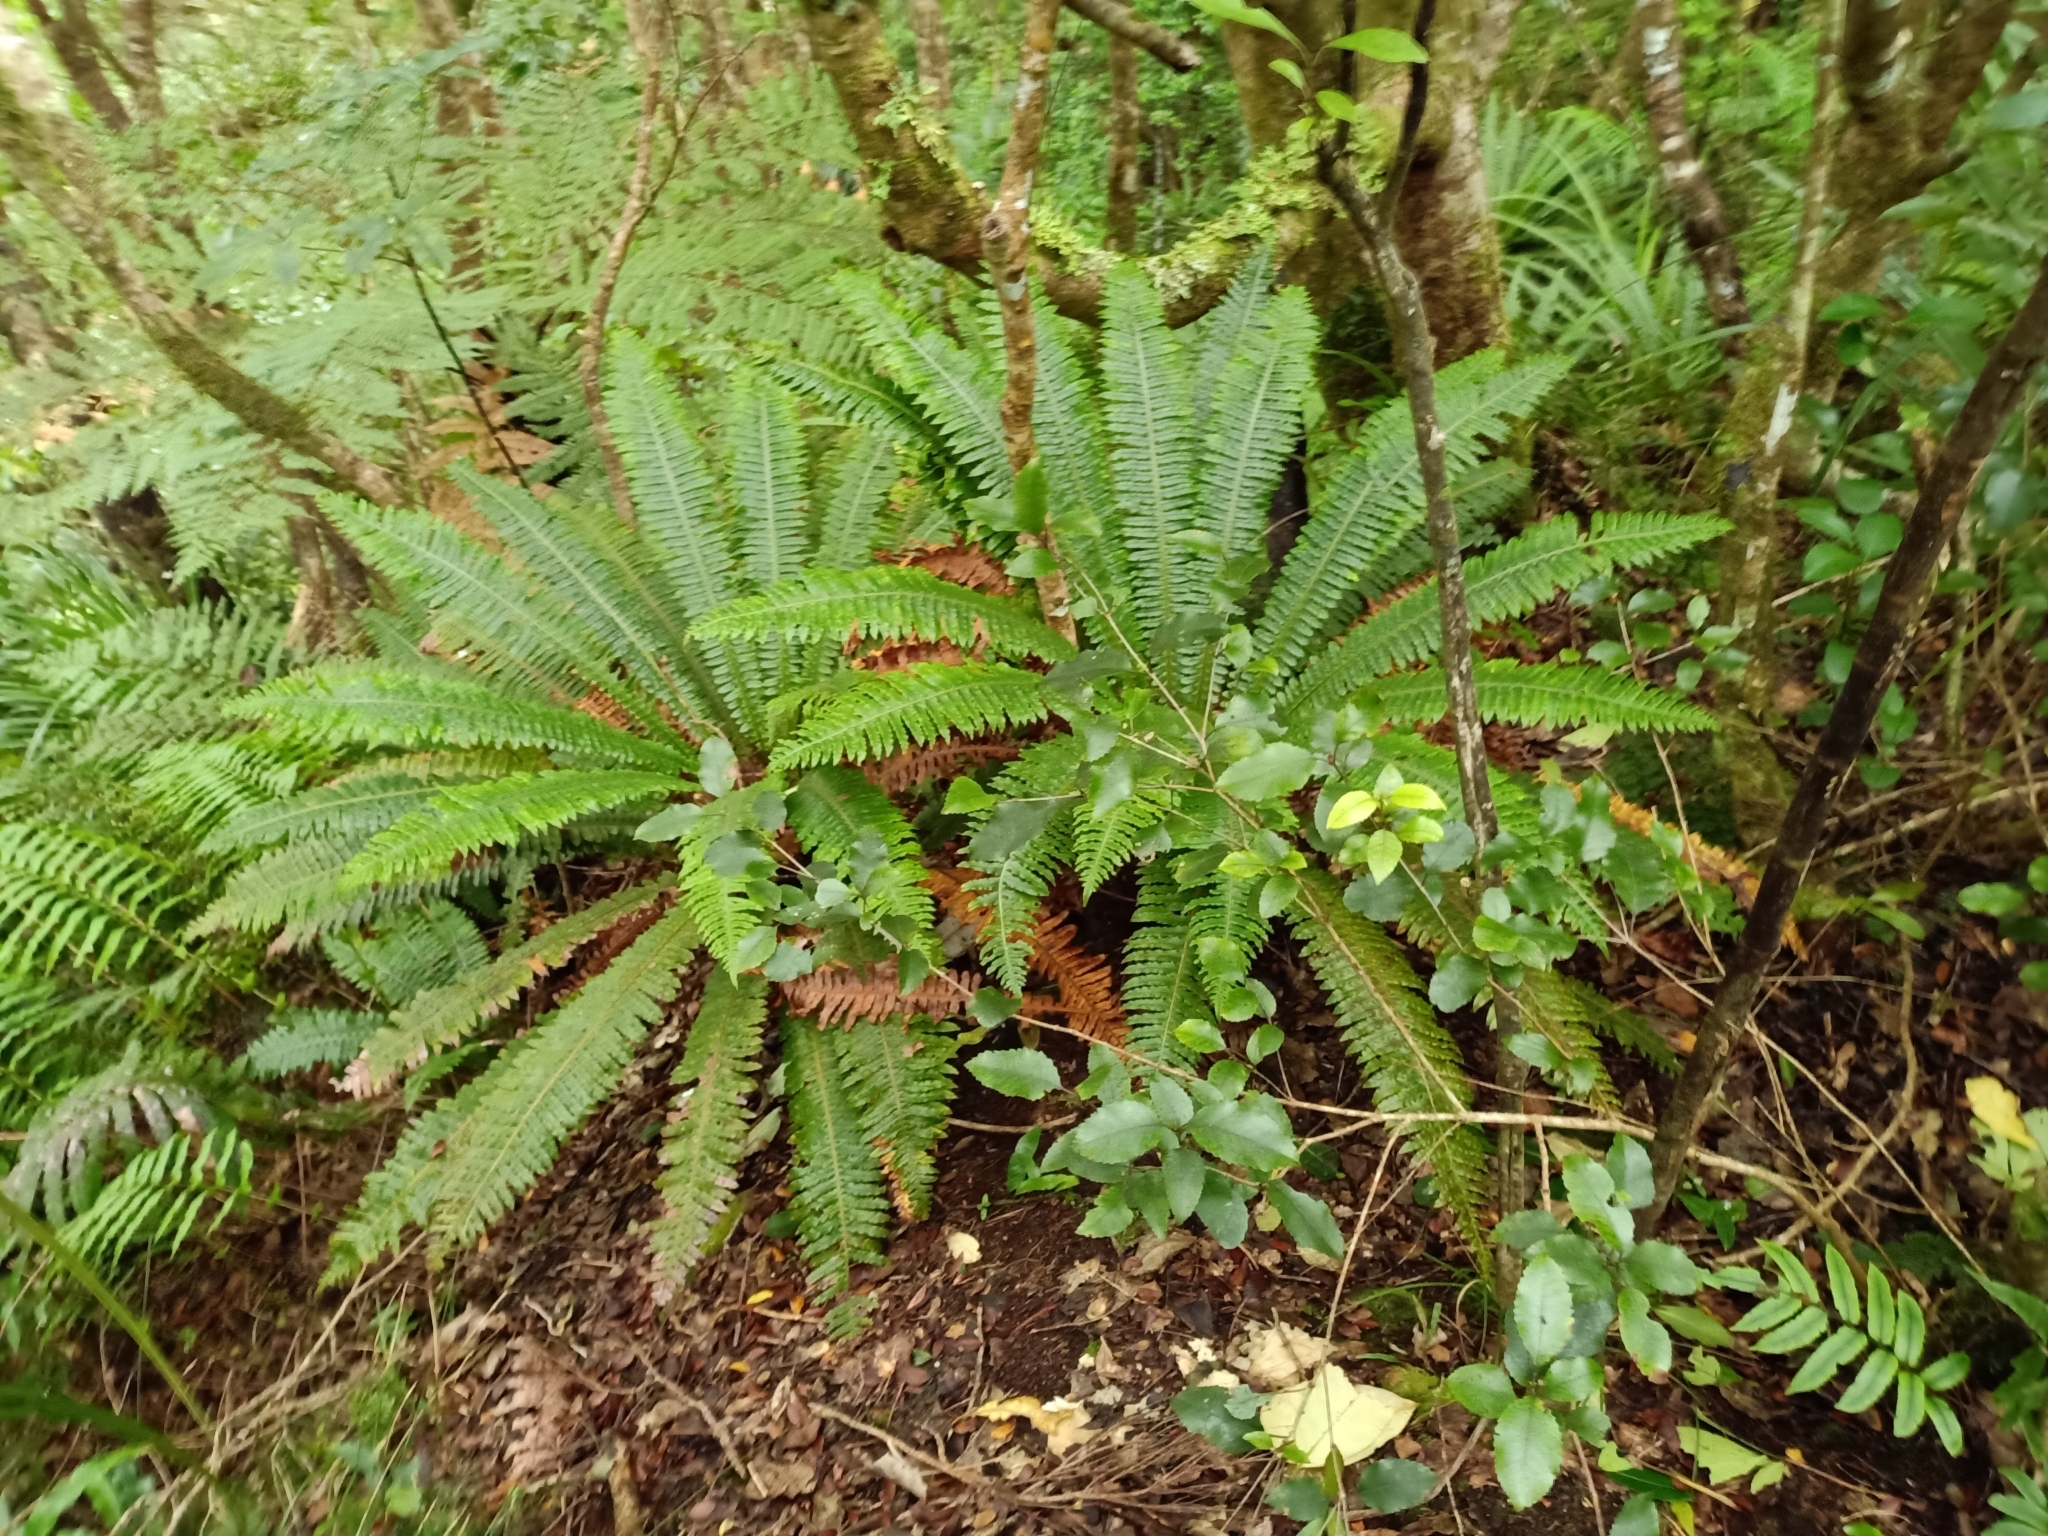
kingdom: Plantae
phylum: Tracheophyta
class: Polypodiopsida
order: Polypodiales
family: Blechnaceae
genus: Lomaria
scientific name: Lomaria discolor
